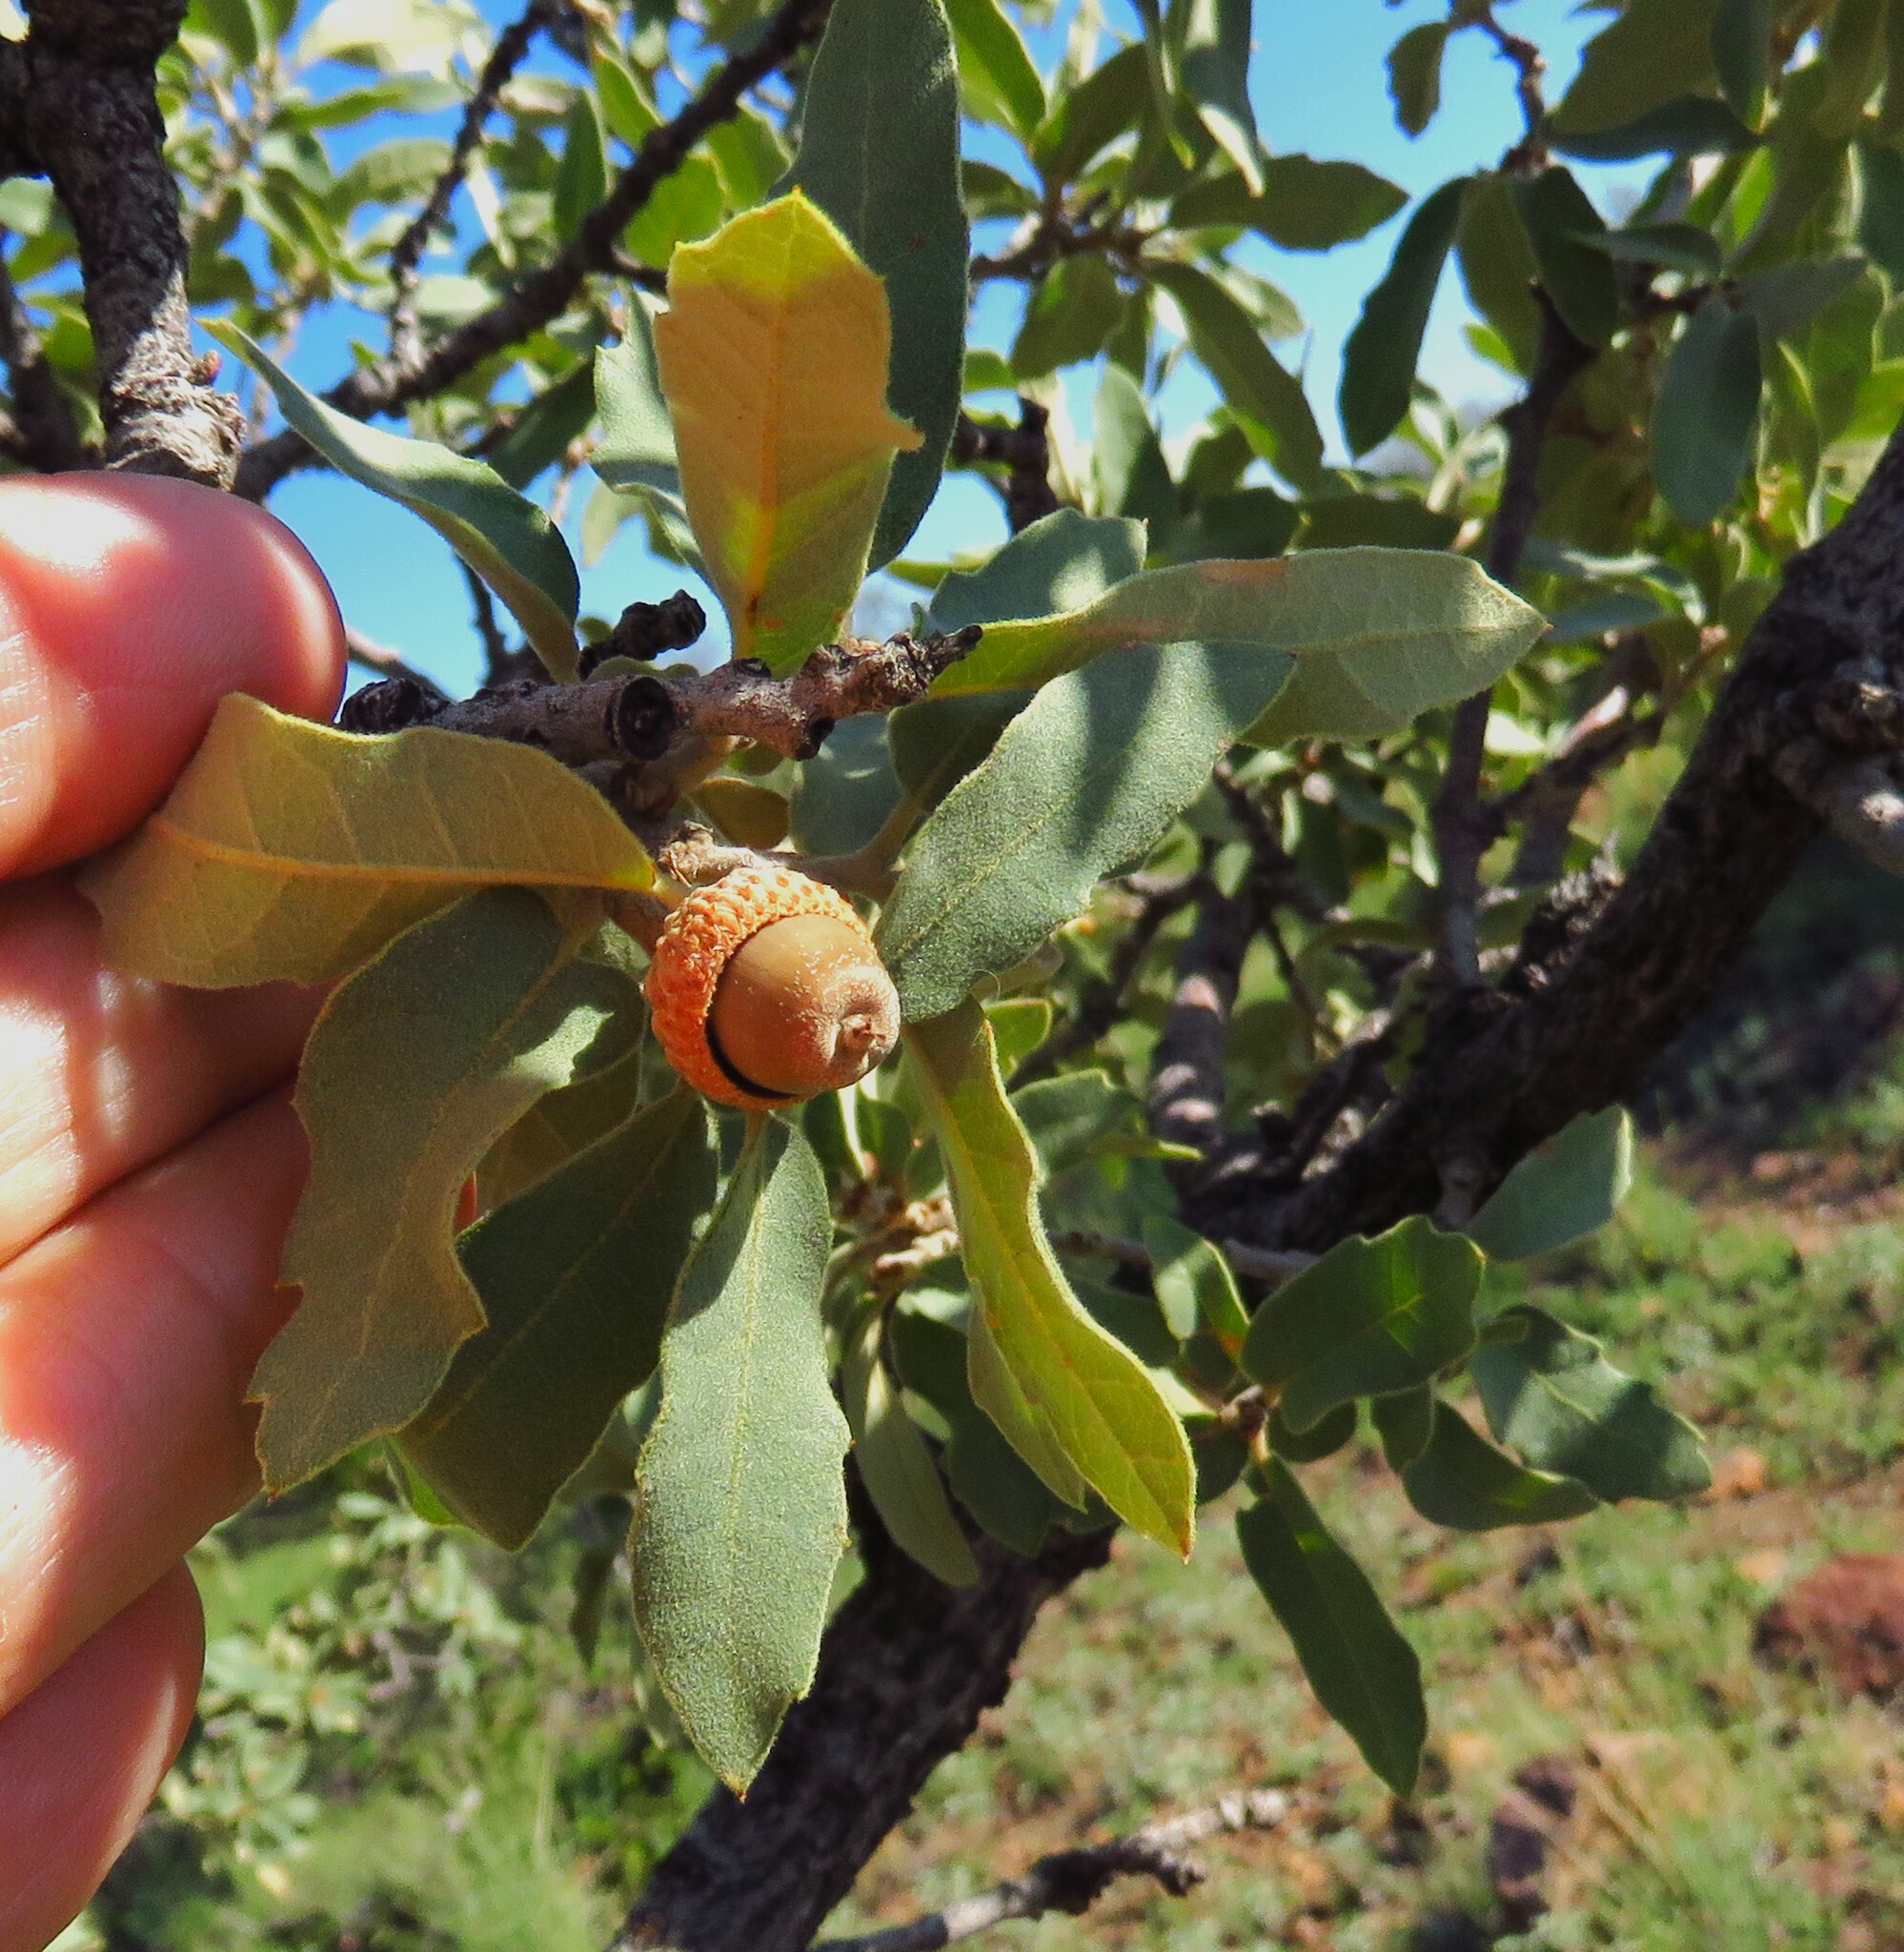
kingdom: Plantae
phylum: Tracheophyta
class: Magnoliopsida
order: Fagales
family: Fagaceae
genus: Quercus
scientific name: Quercus grisea
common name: Gray oak
